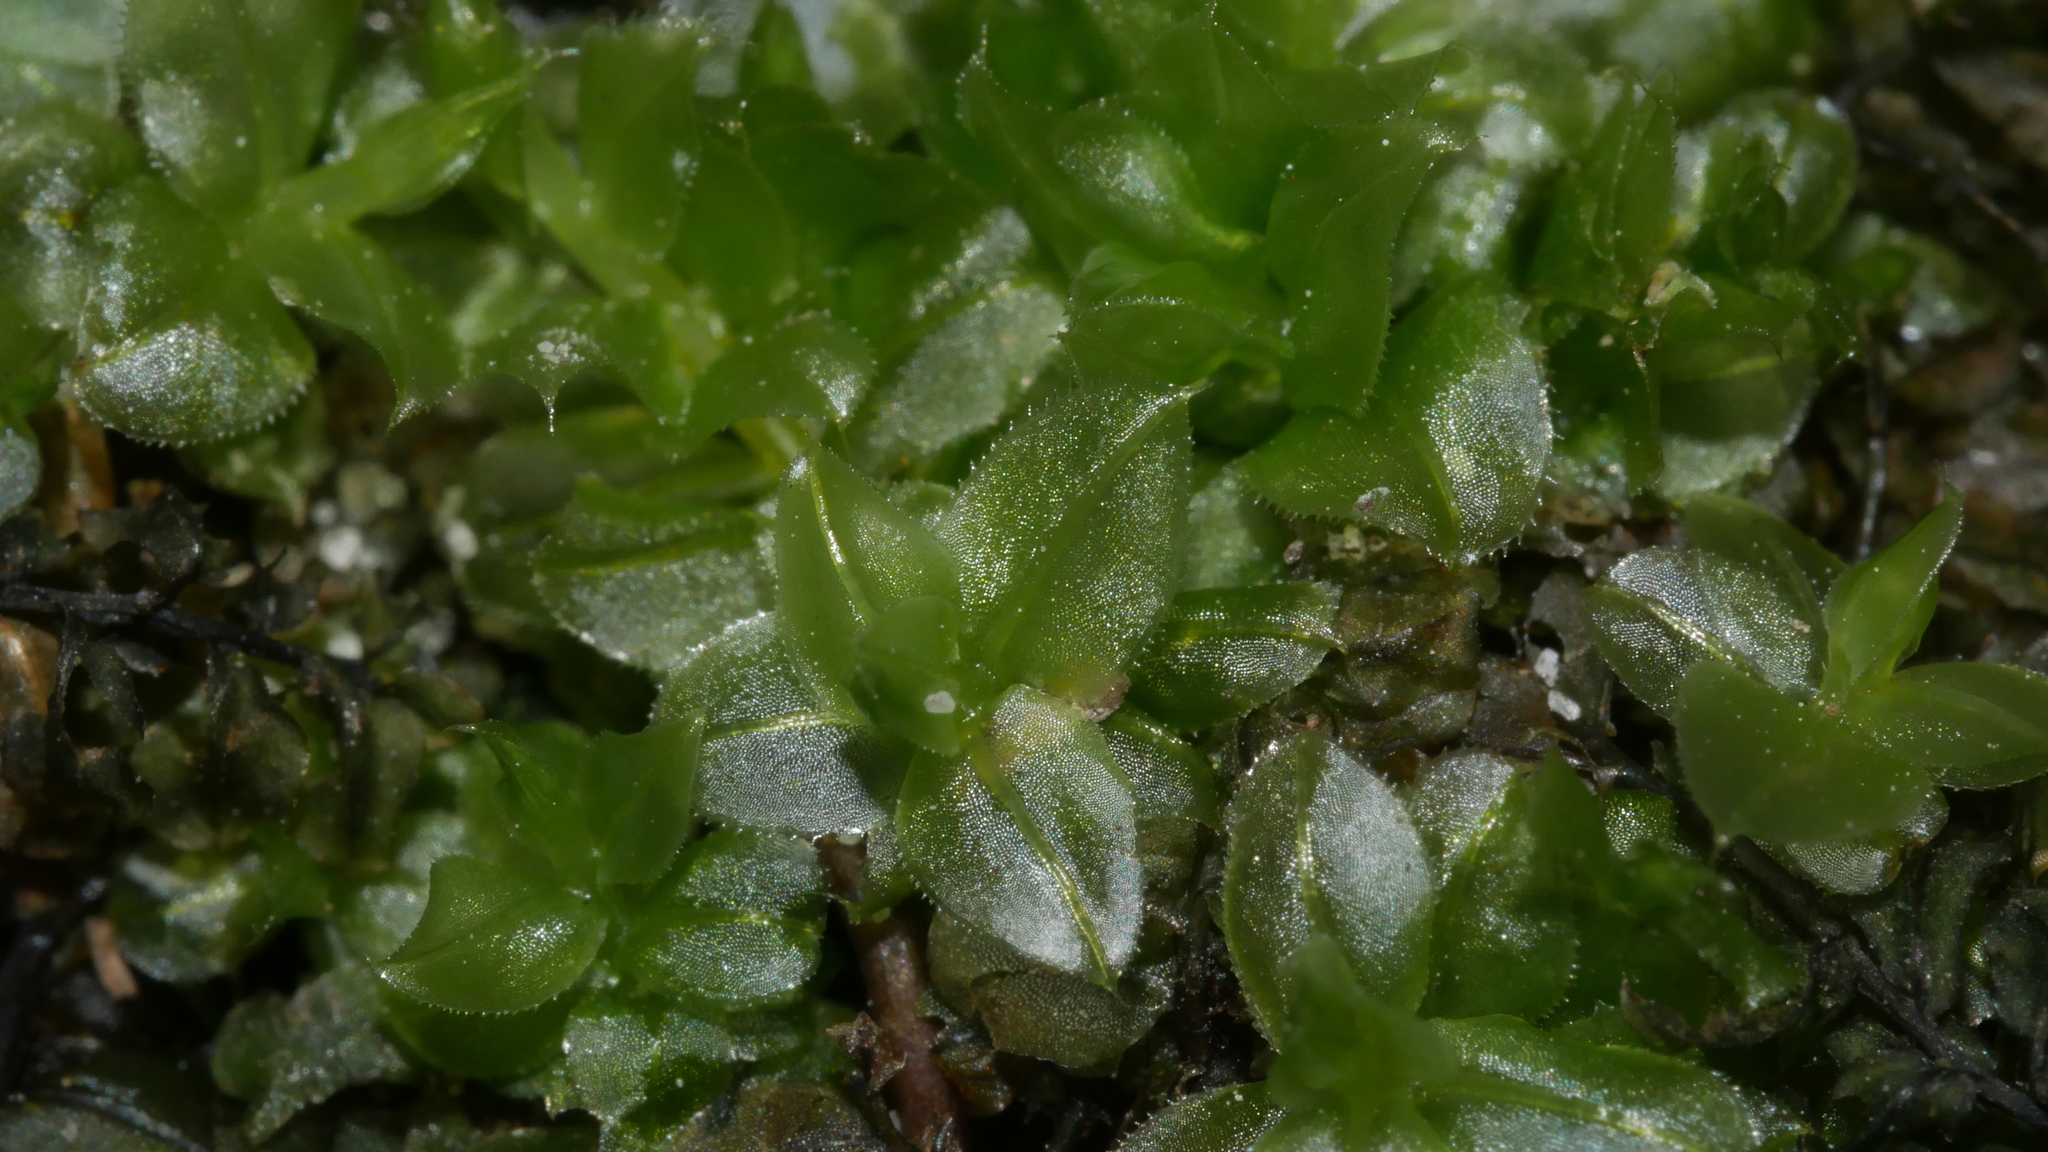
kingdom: Plantae
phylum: Bryophyta
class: Bryopsida
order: Bryales
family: Mniaceae
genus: Plagiomnium
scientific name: Plagiomnium
